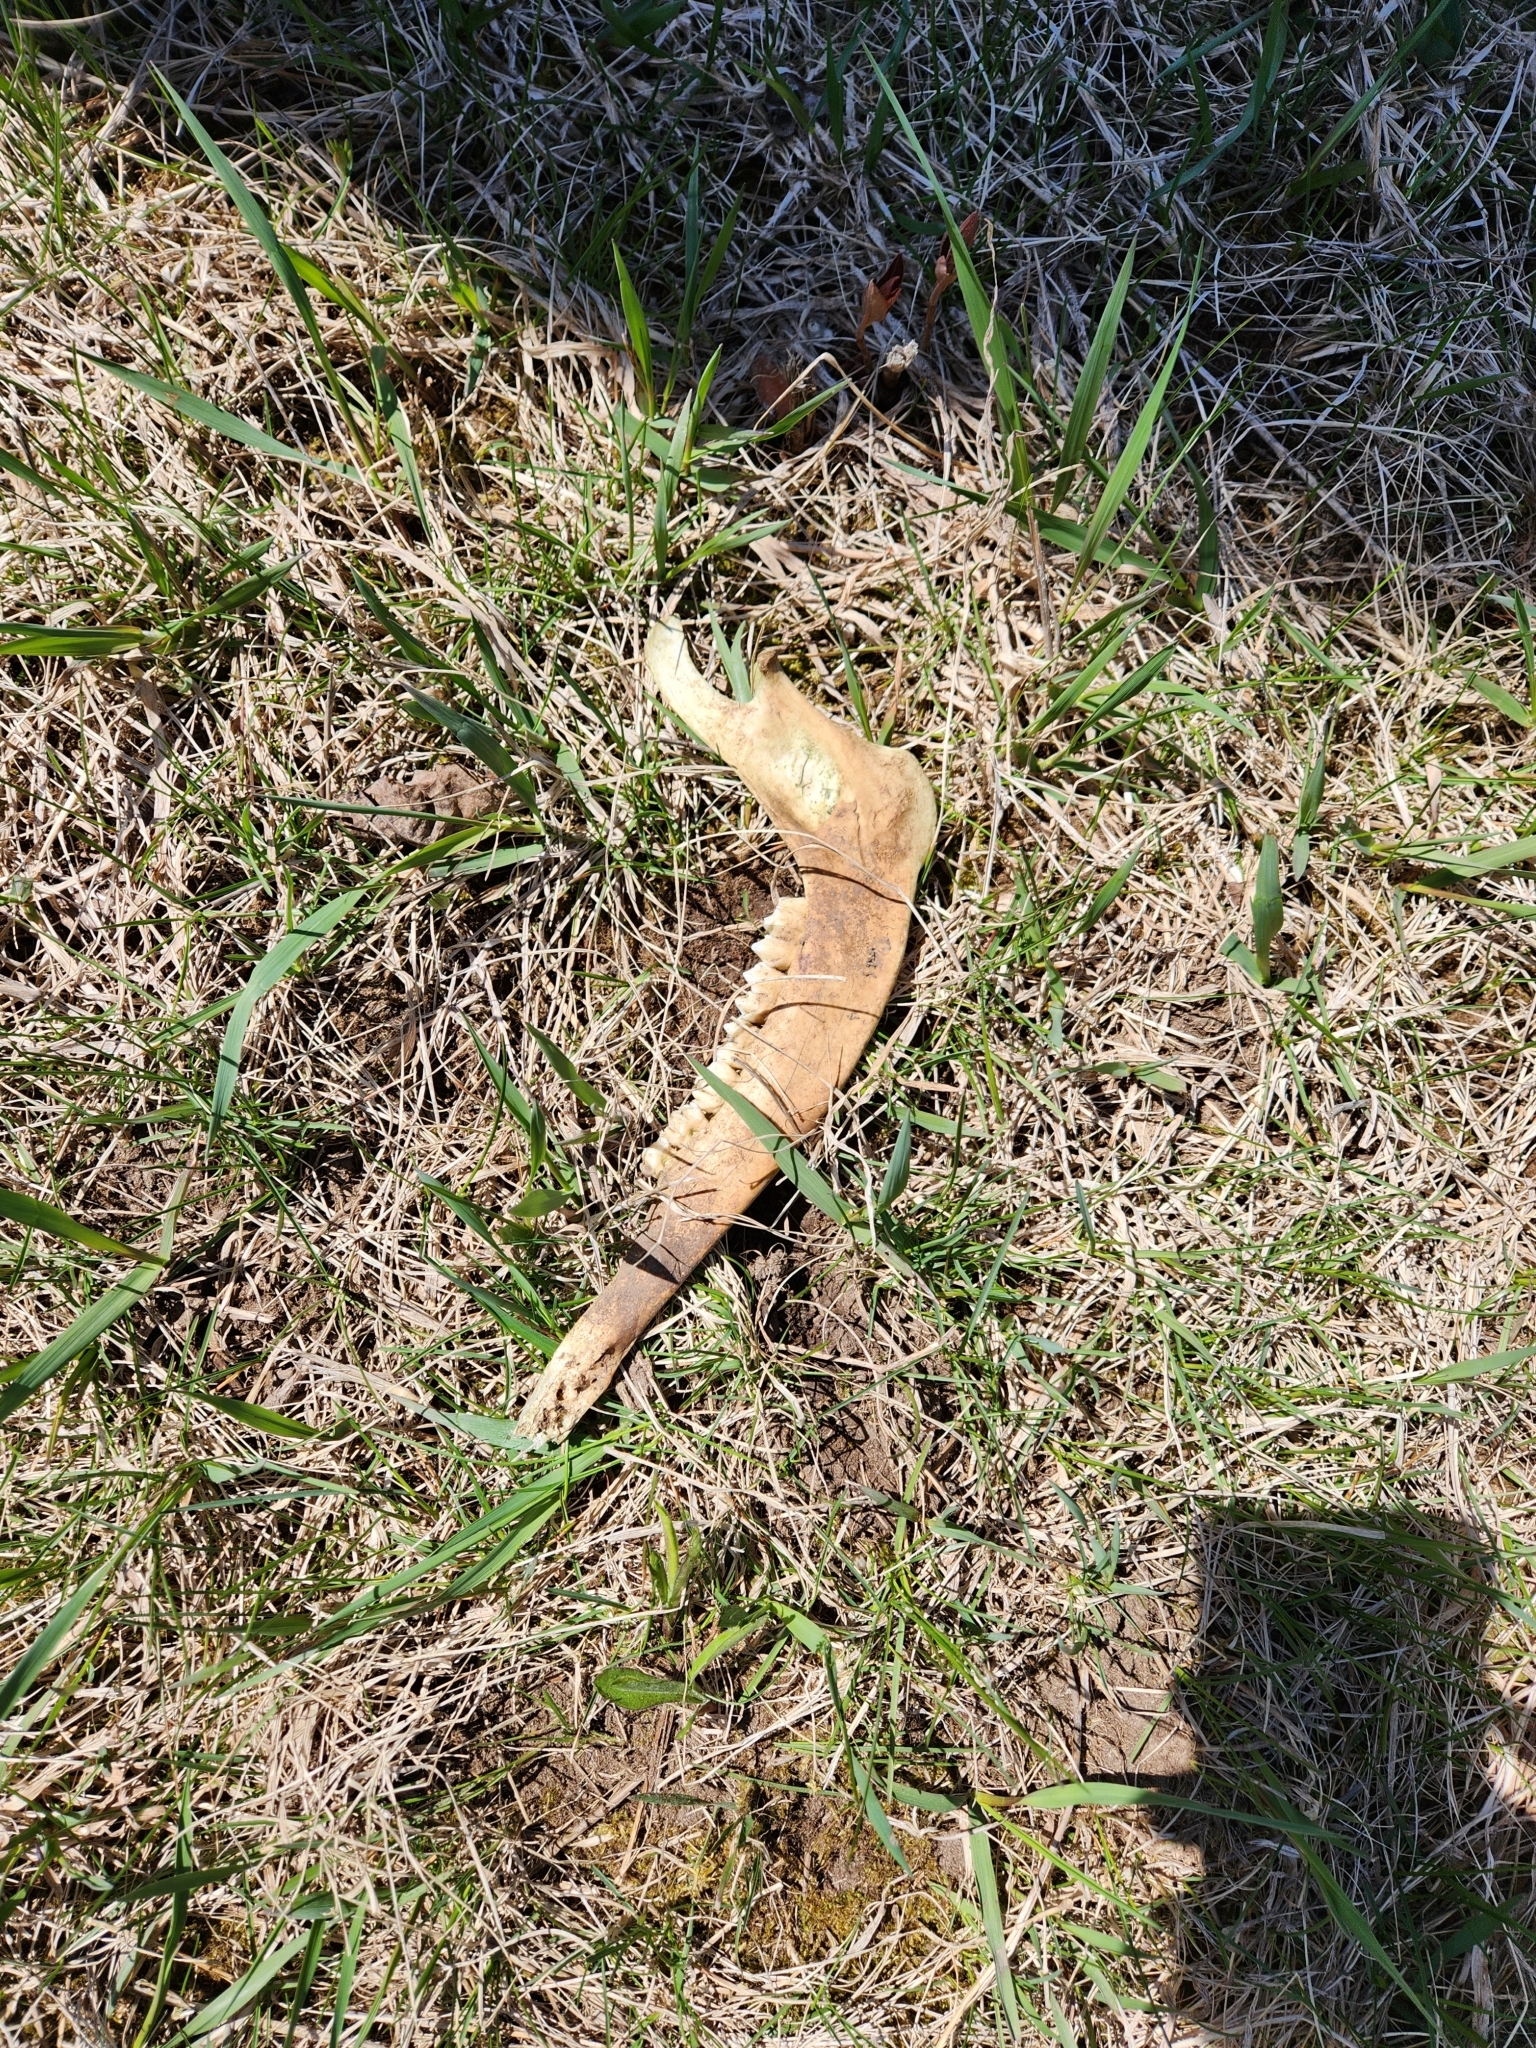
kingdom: Animalia
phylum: Chordata
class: Mammalia
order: Artiodactyla
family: Cervidae
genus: Odocoileus
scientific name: Odocoileus virginianus
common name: White-tailed deer
